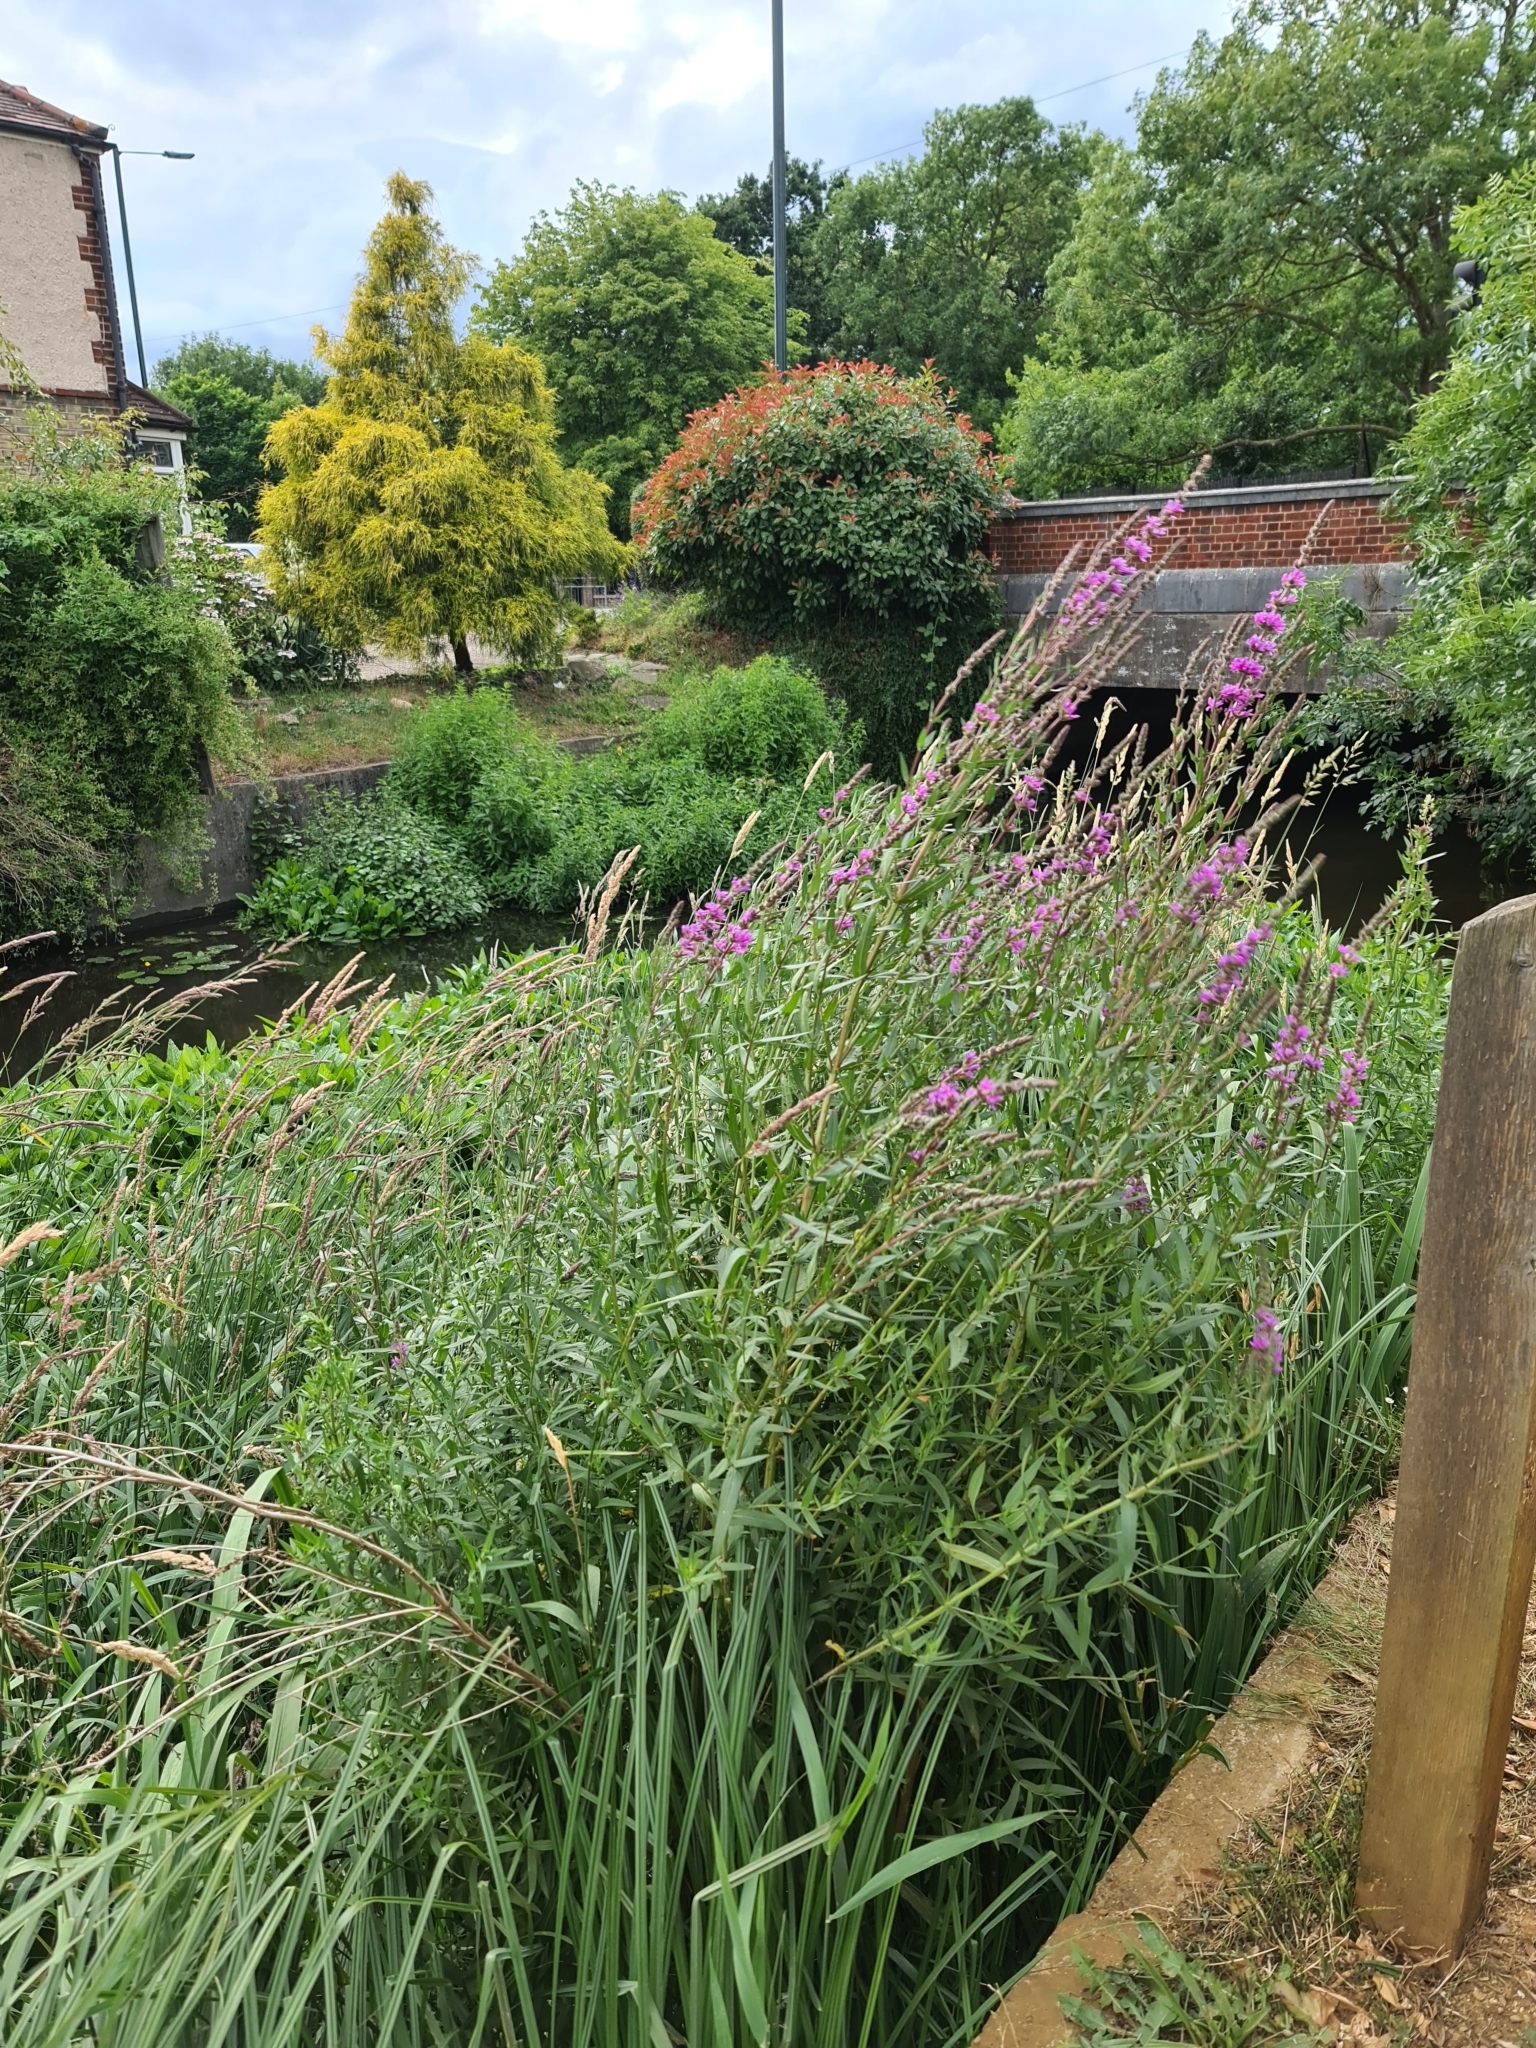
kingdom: Plantae
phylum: Tracheophyta
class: Magnoliopsida
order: Myrtales
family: Lythraceae
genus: Lythrum
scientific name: Lythrum salicaria
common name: Purple loosestrife
